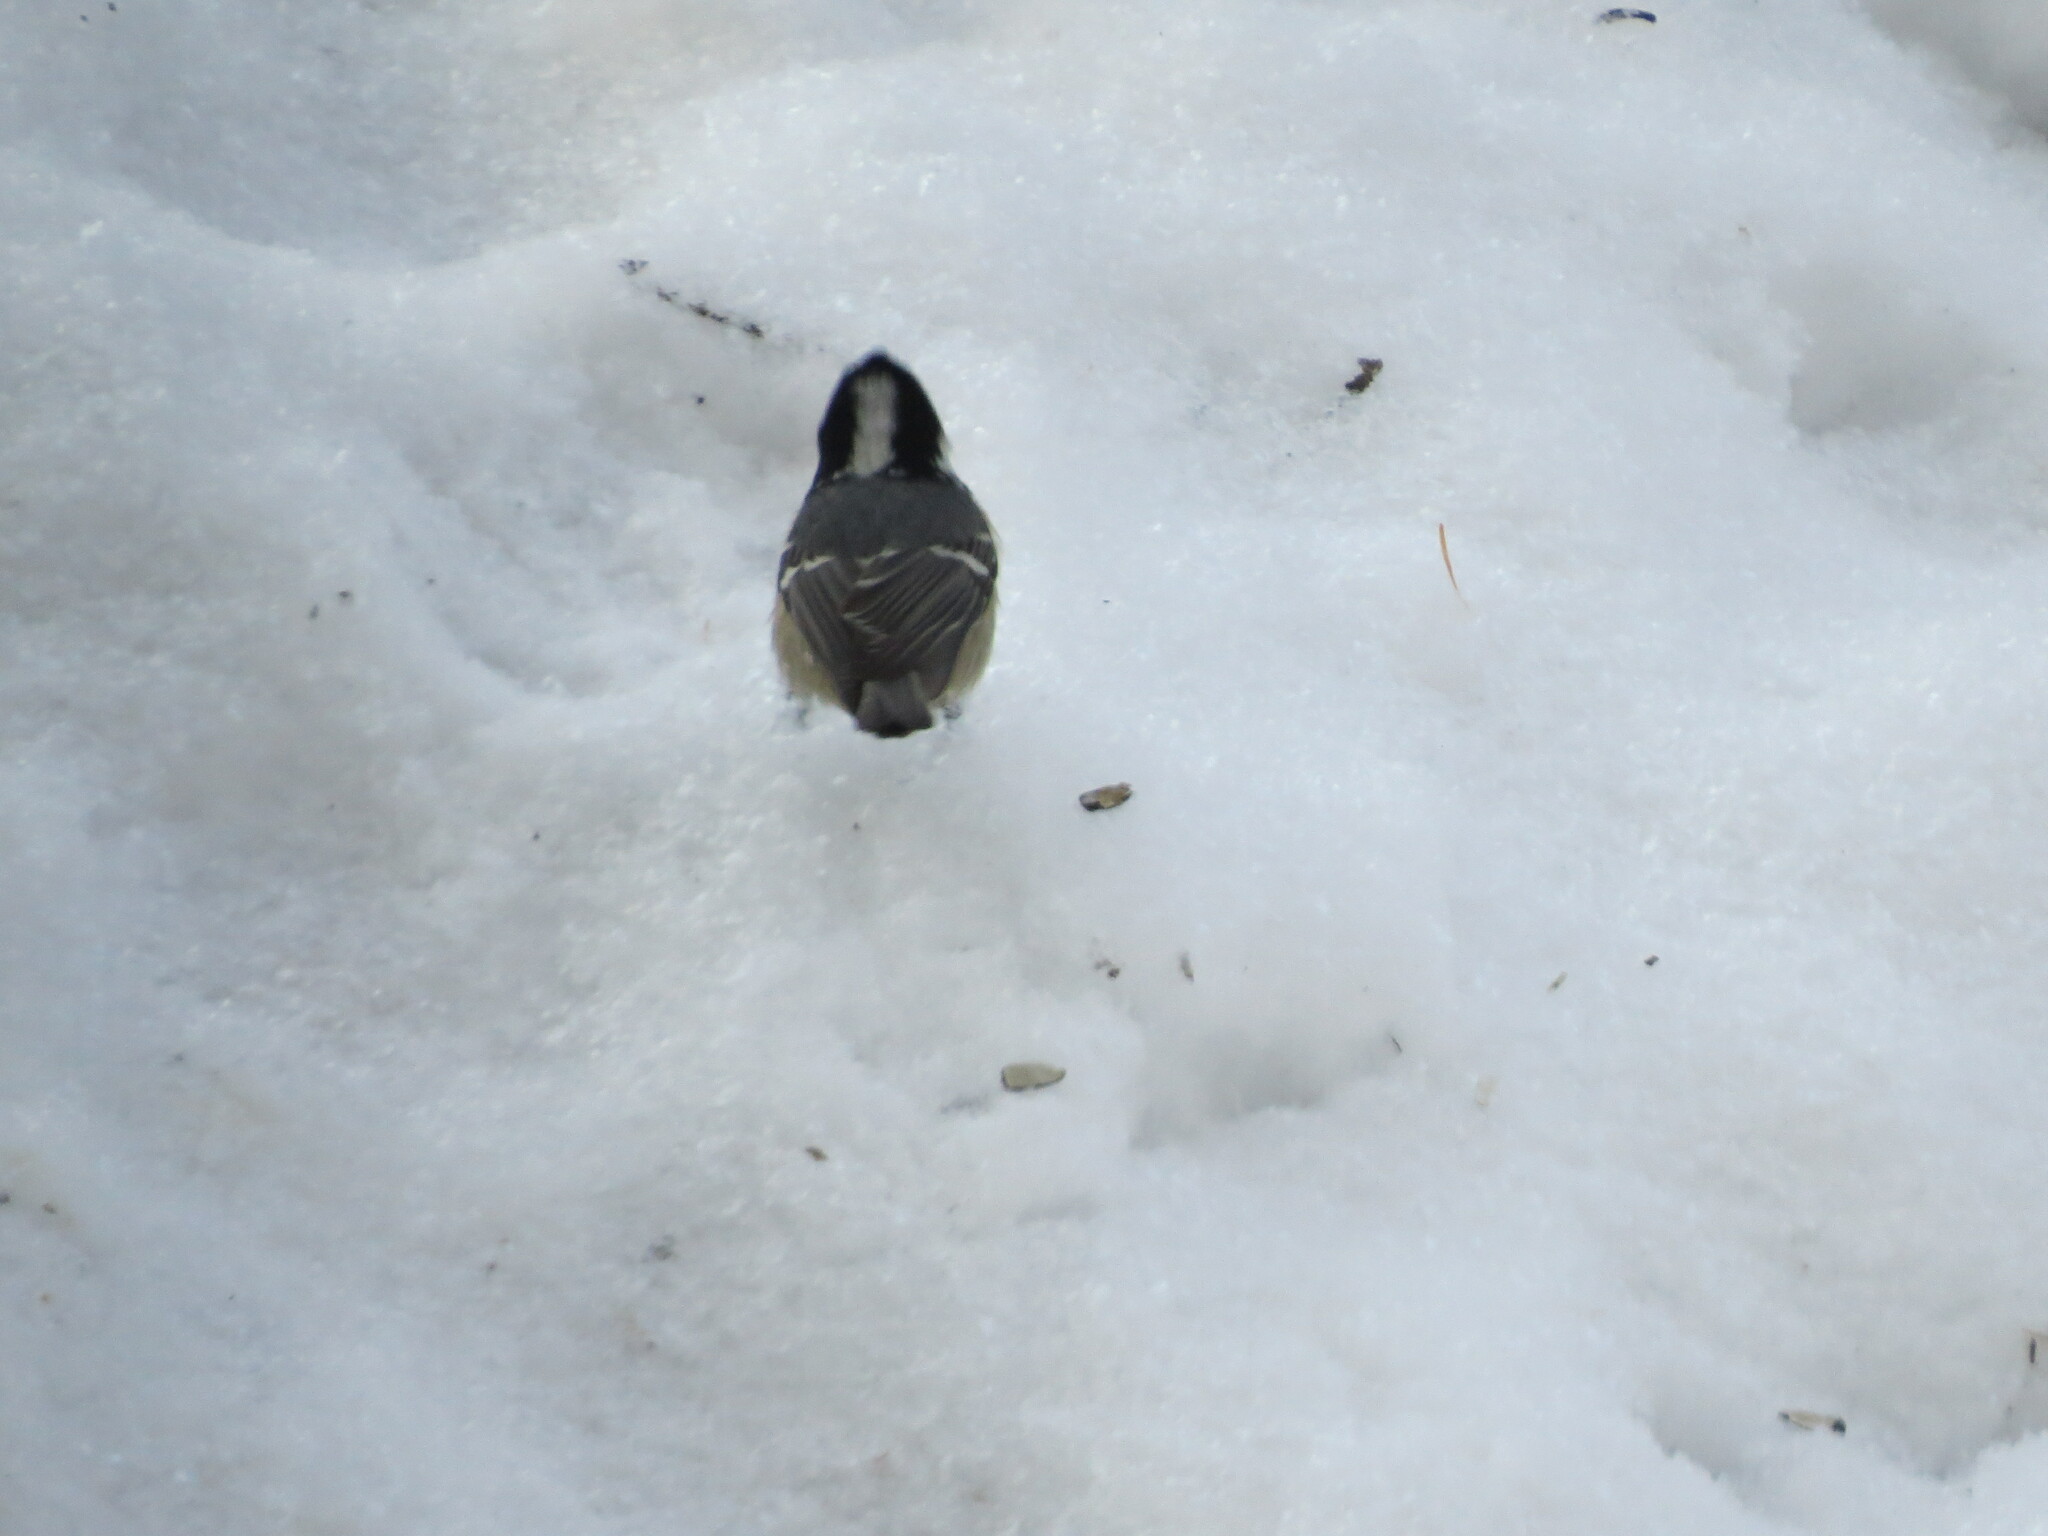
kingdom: Animalia
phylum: Chordata
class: Aves
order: Passeriformes
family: Paridae
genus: Periparus
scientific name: Periparus ater
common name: Coal tit
